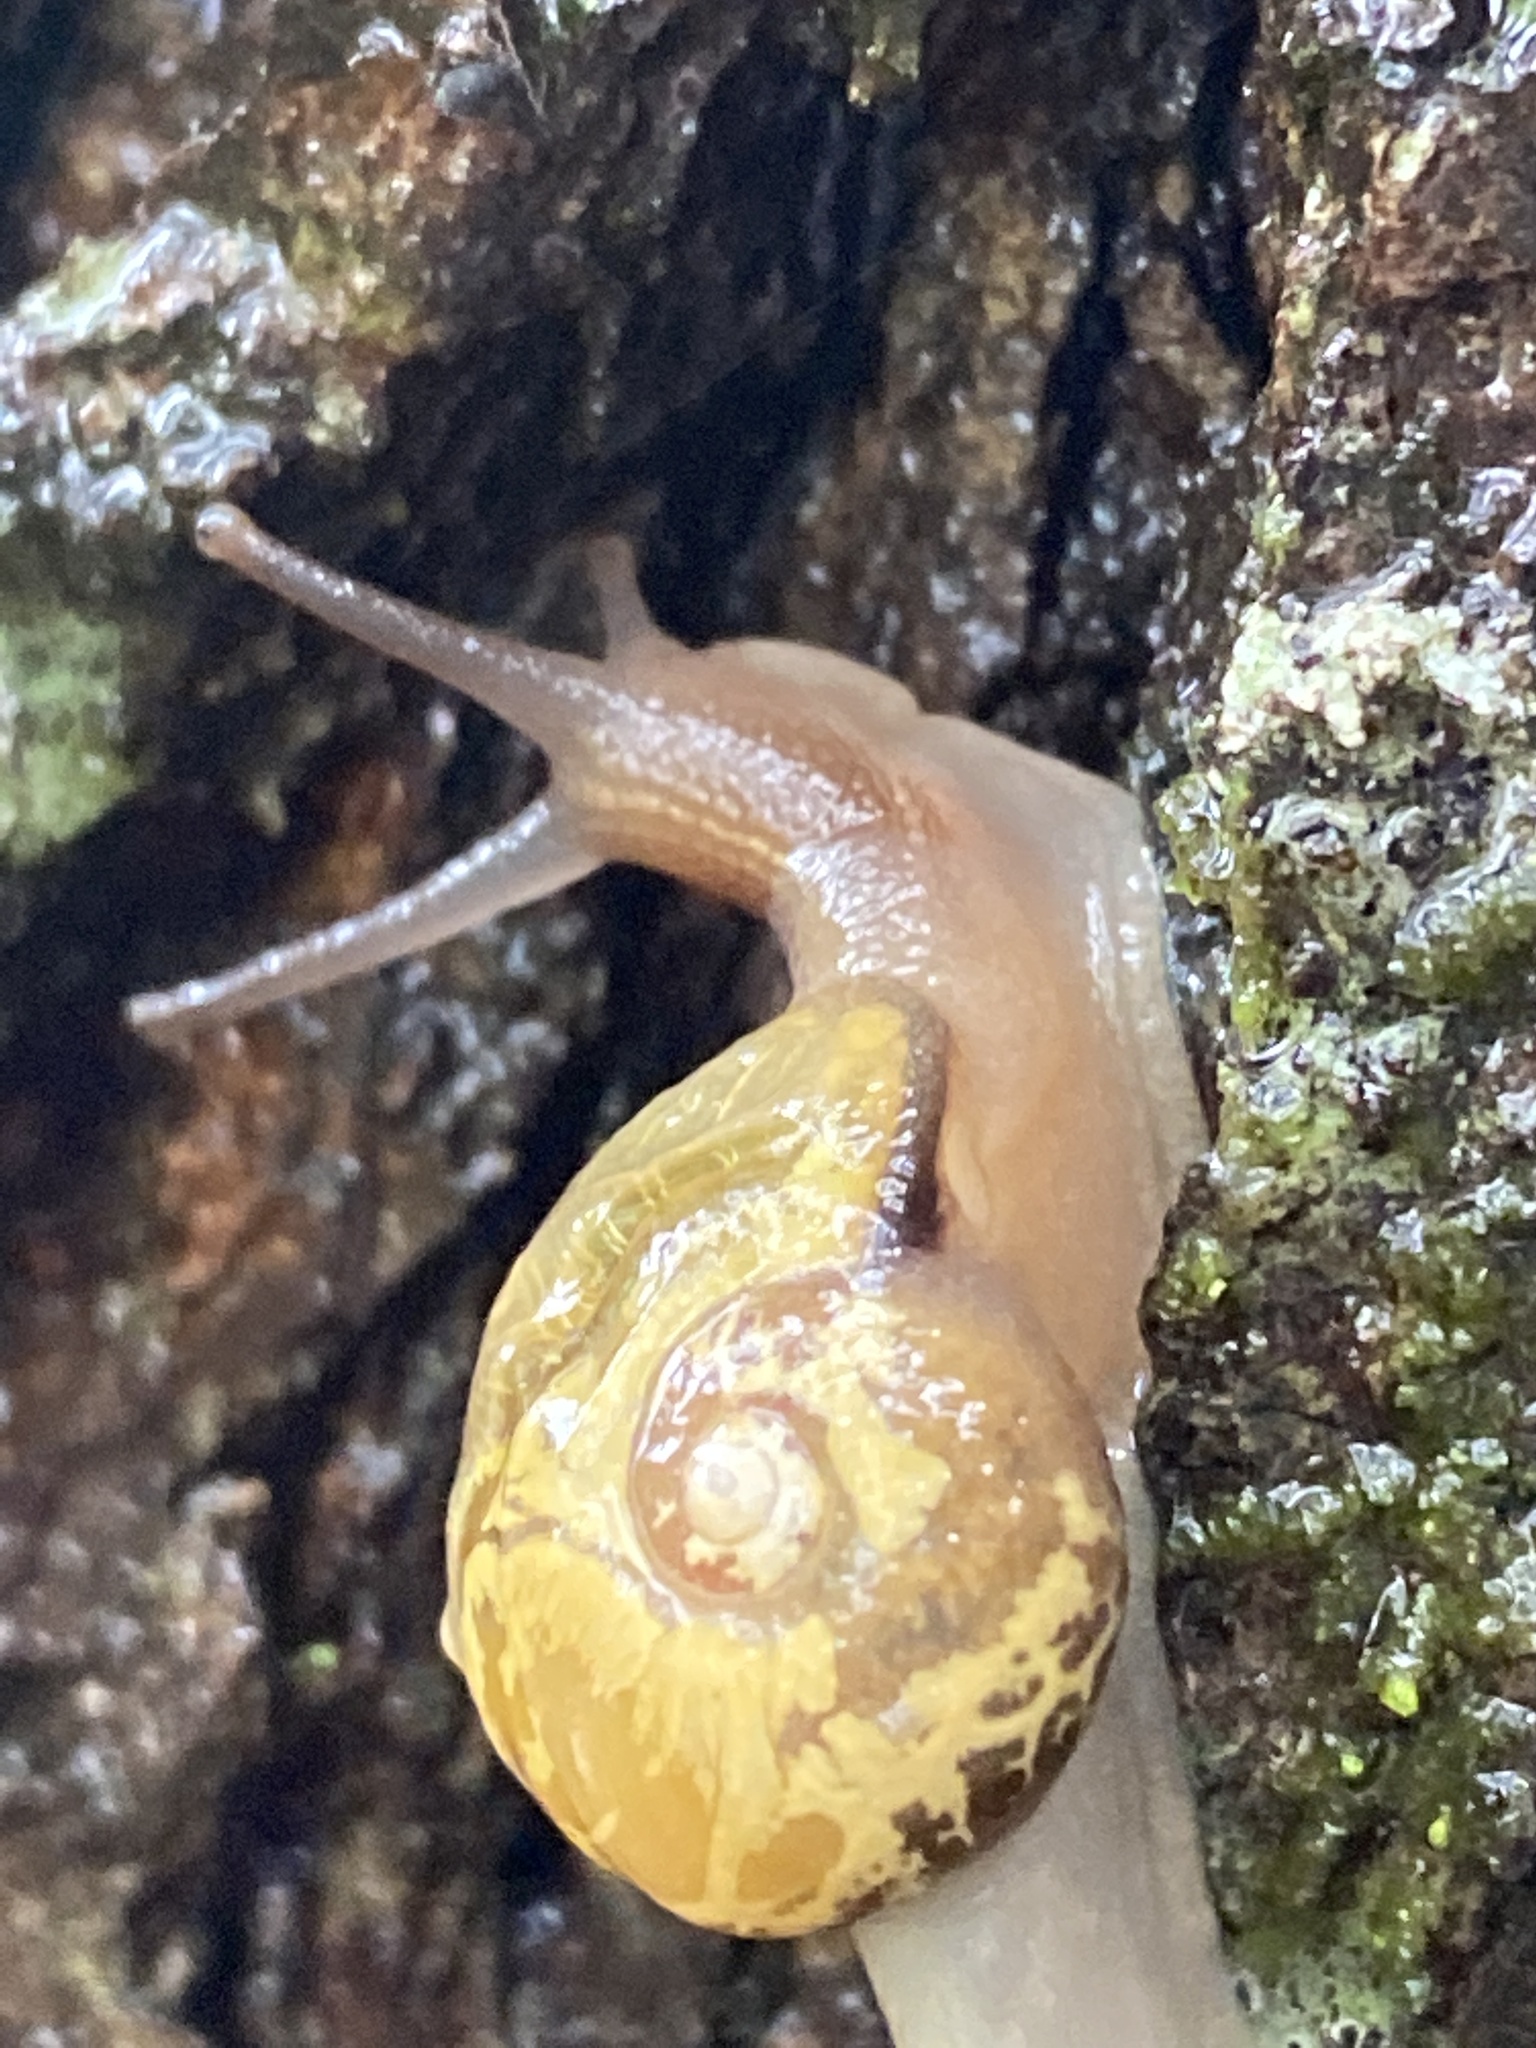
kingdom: Animalia
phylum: Mollusca
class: Gastropoda
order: Stylommatophora
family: Helicarionidae
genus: Mysticarion
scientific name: Mysticarion porrectus
